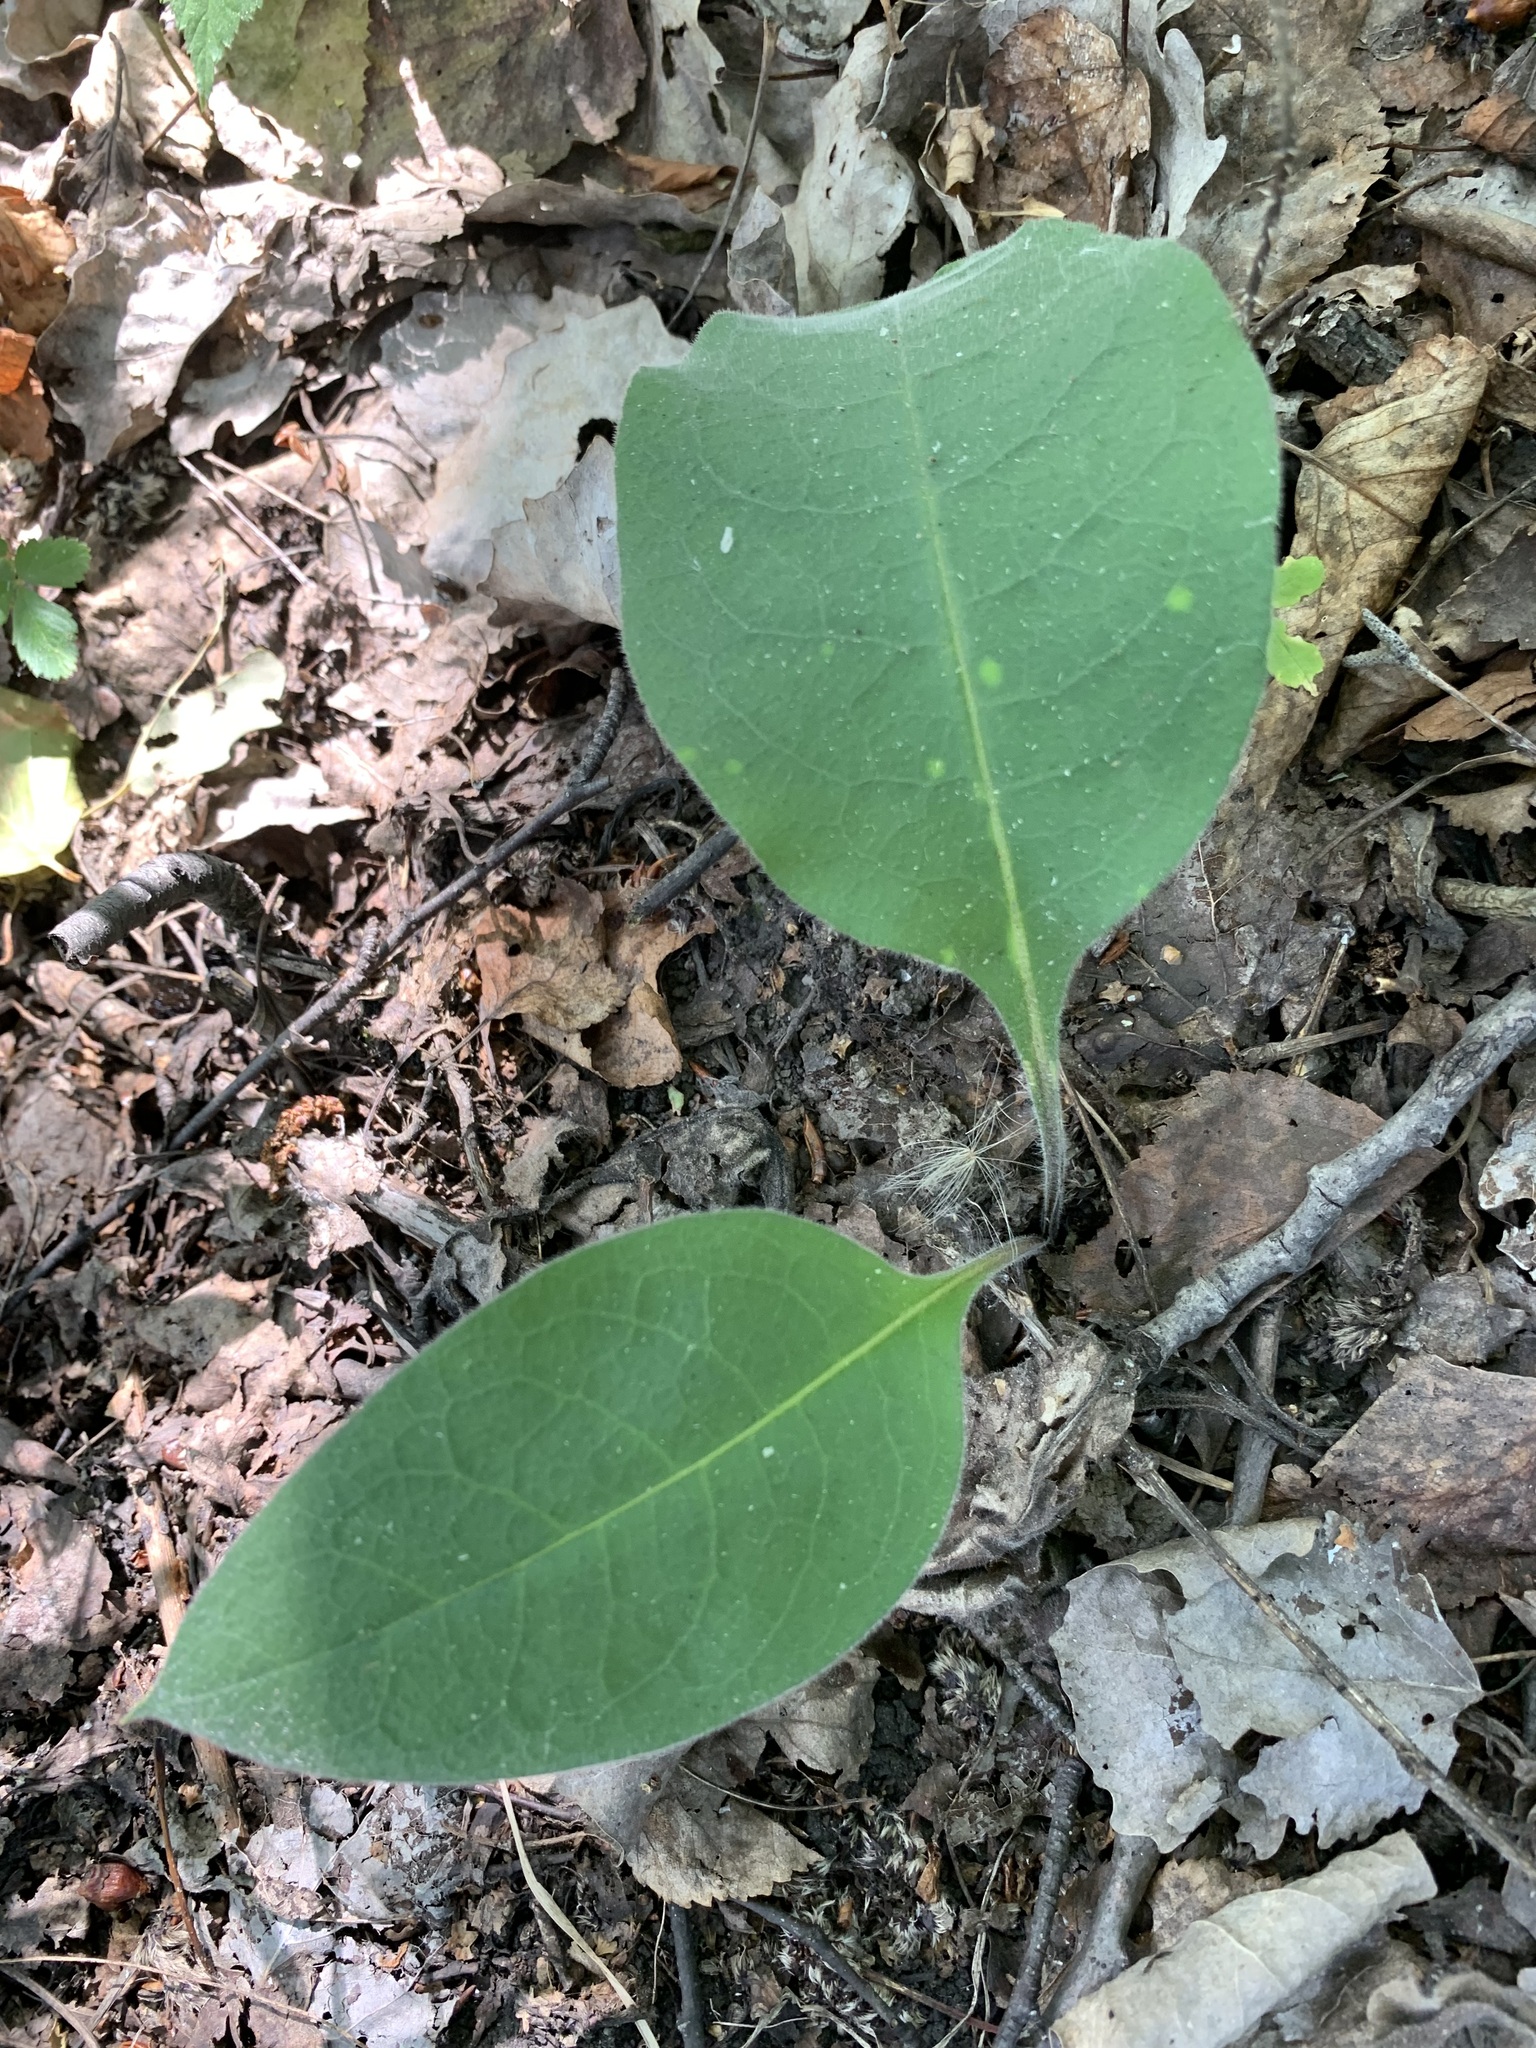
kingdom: Plantae
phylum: Tracheophyta
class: Magnoliopsida
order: Boraginales
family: Boraginaceae
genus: Pulmonaria
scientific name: Pulmonaria mollis
